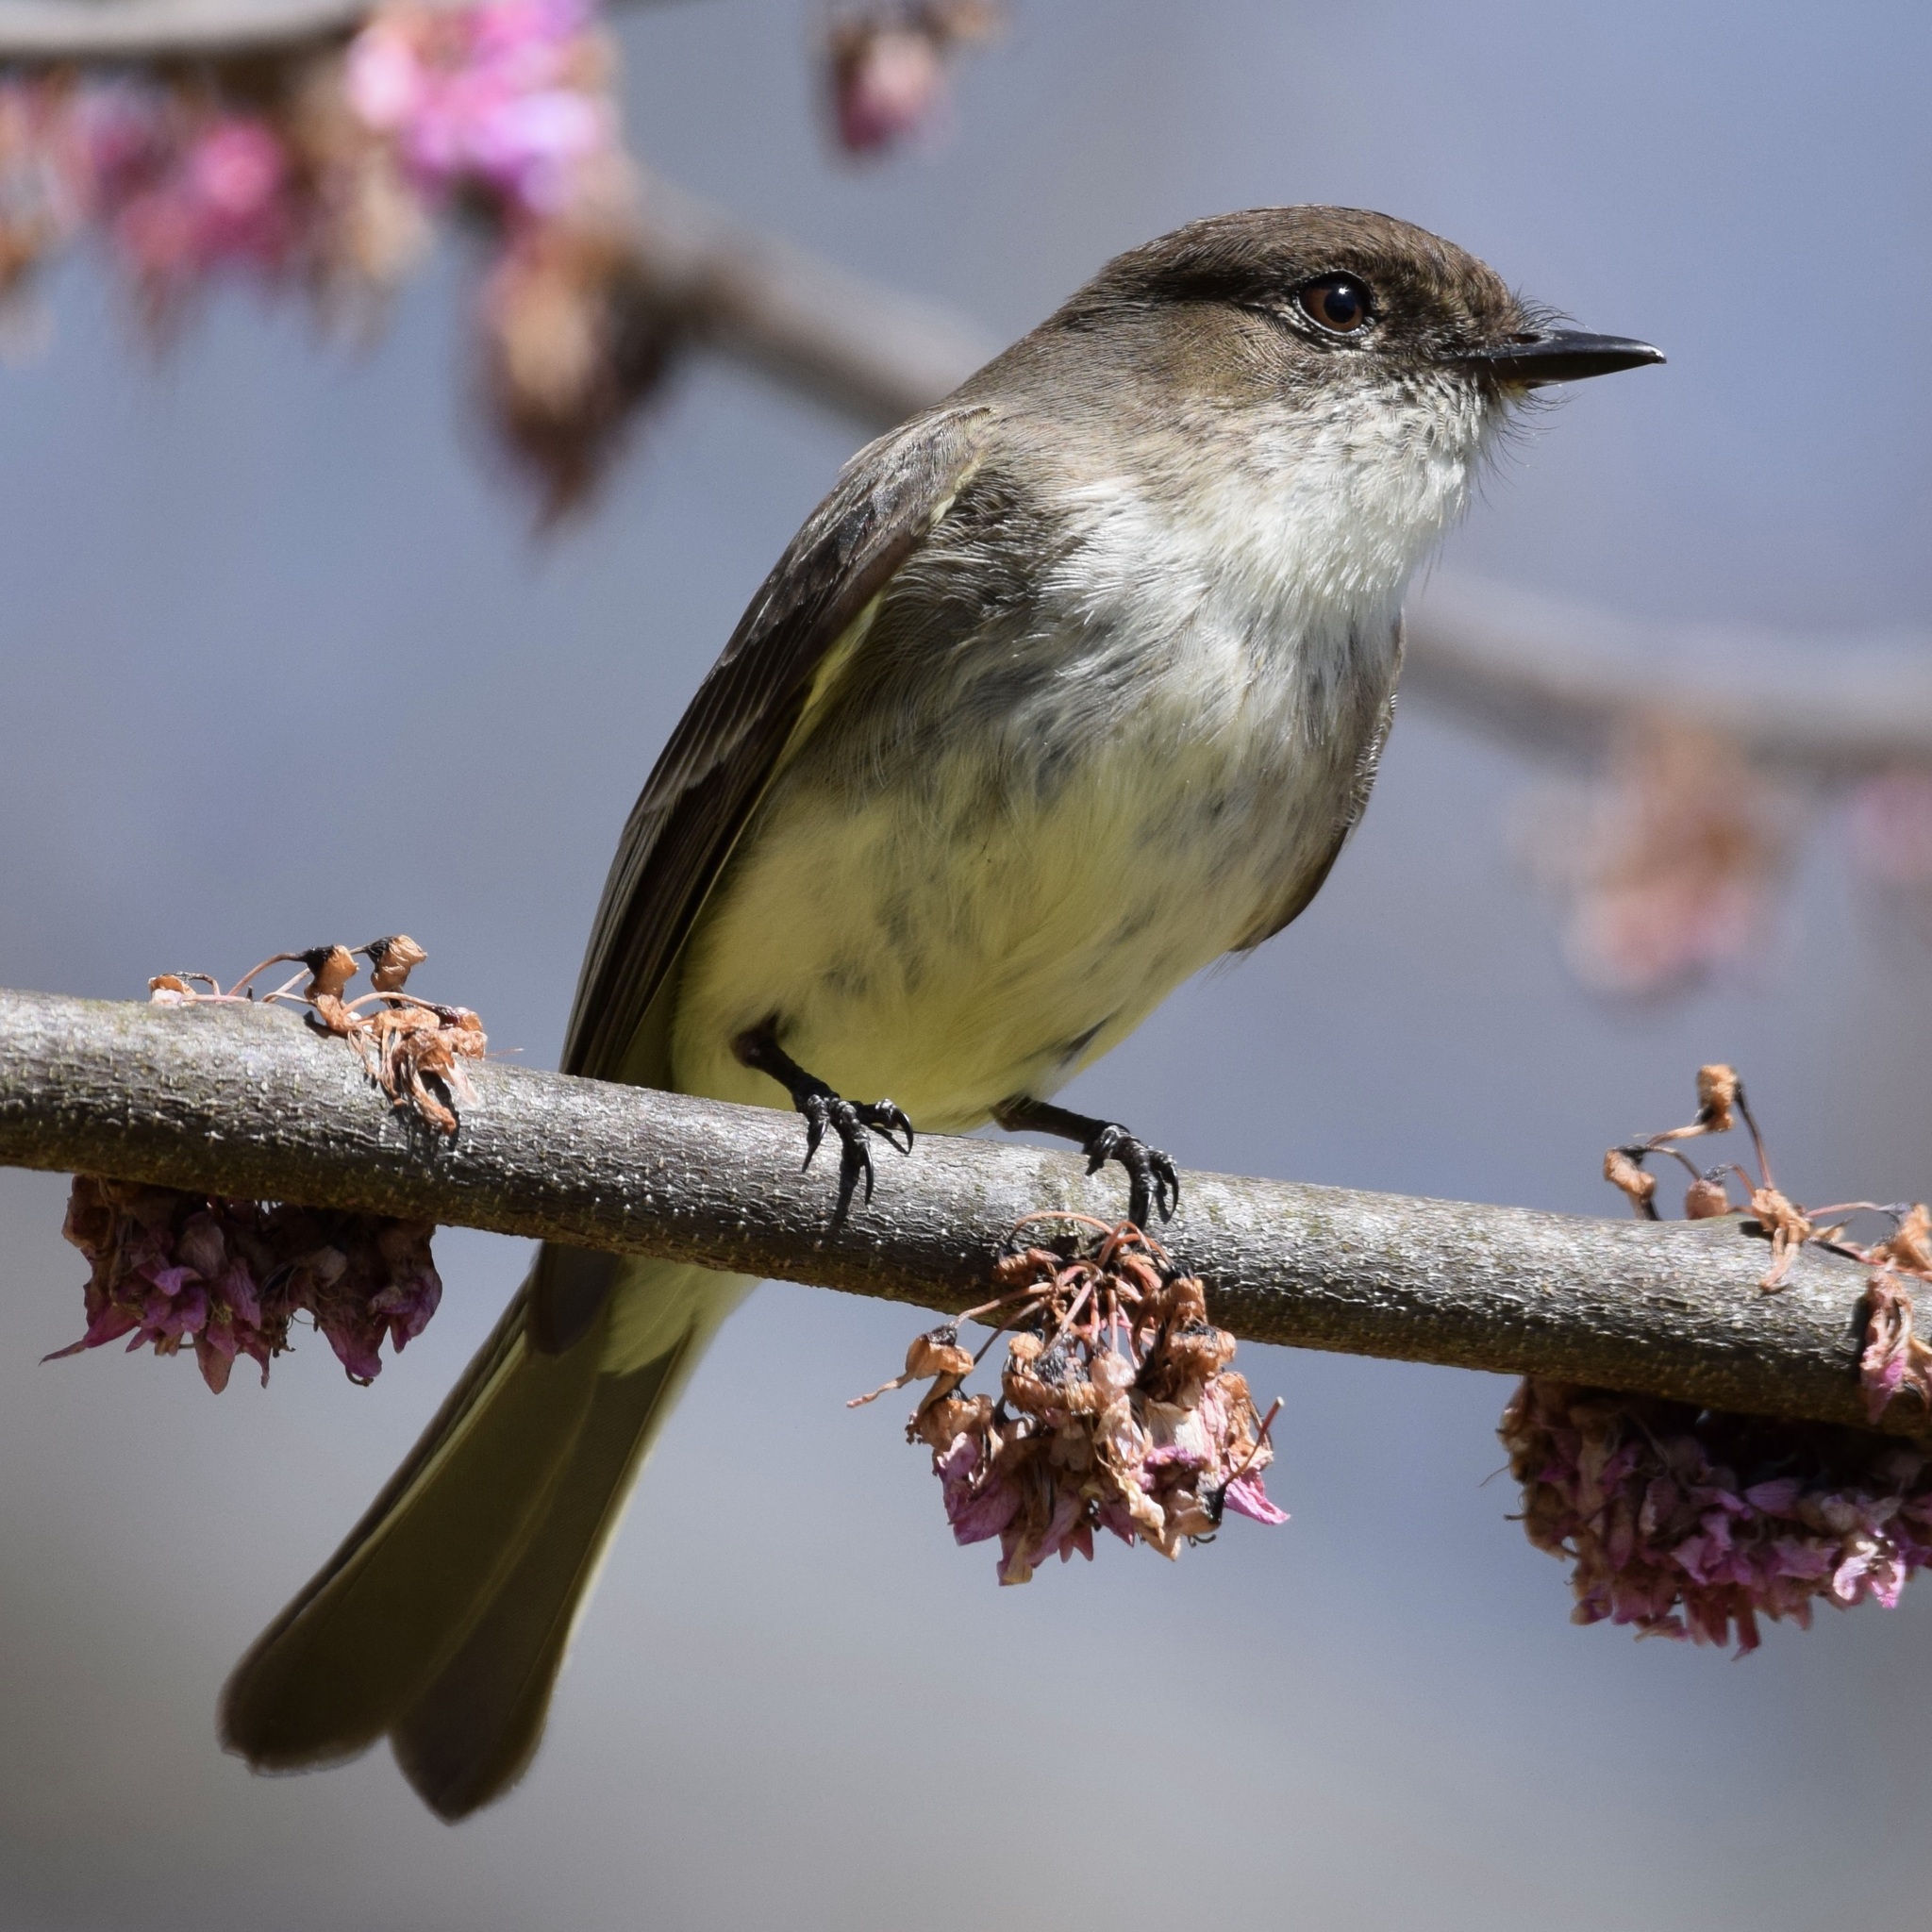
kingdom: Animalia
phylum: Chordata
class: Aves
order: Passeriformes
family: Tyrannidae
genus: Sayornis
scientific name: Sayornis phoebe
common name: Eastern phoebe
